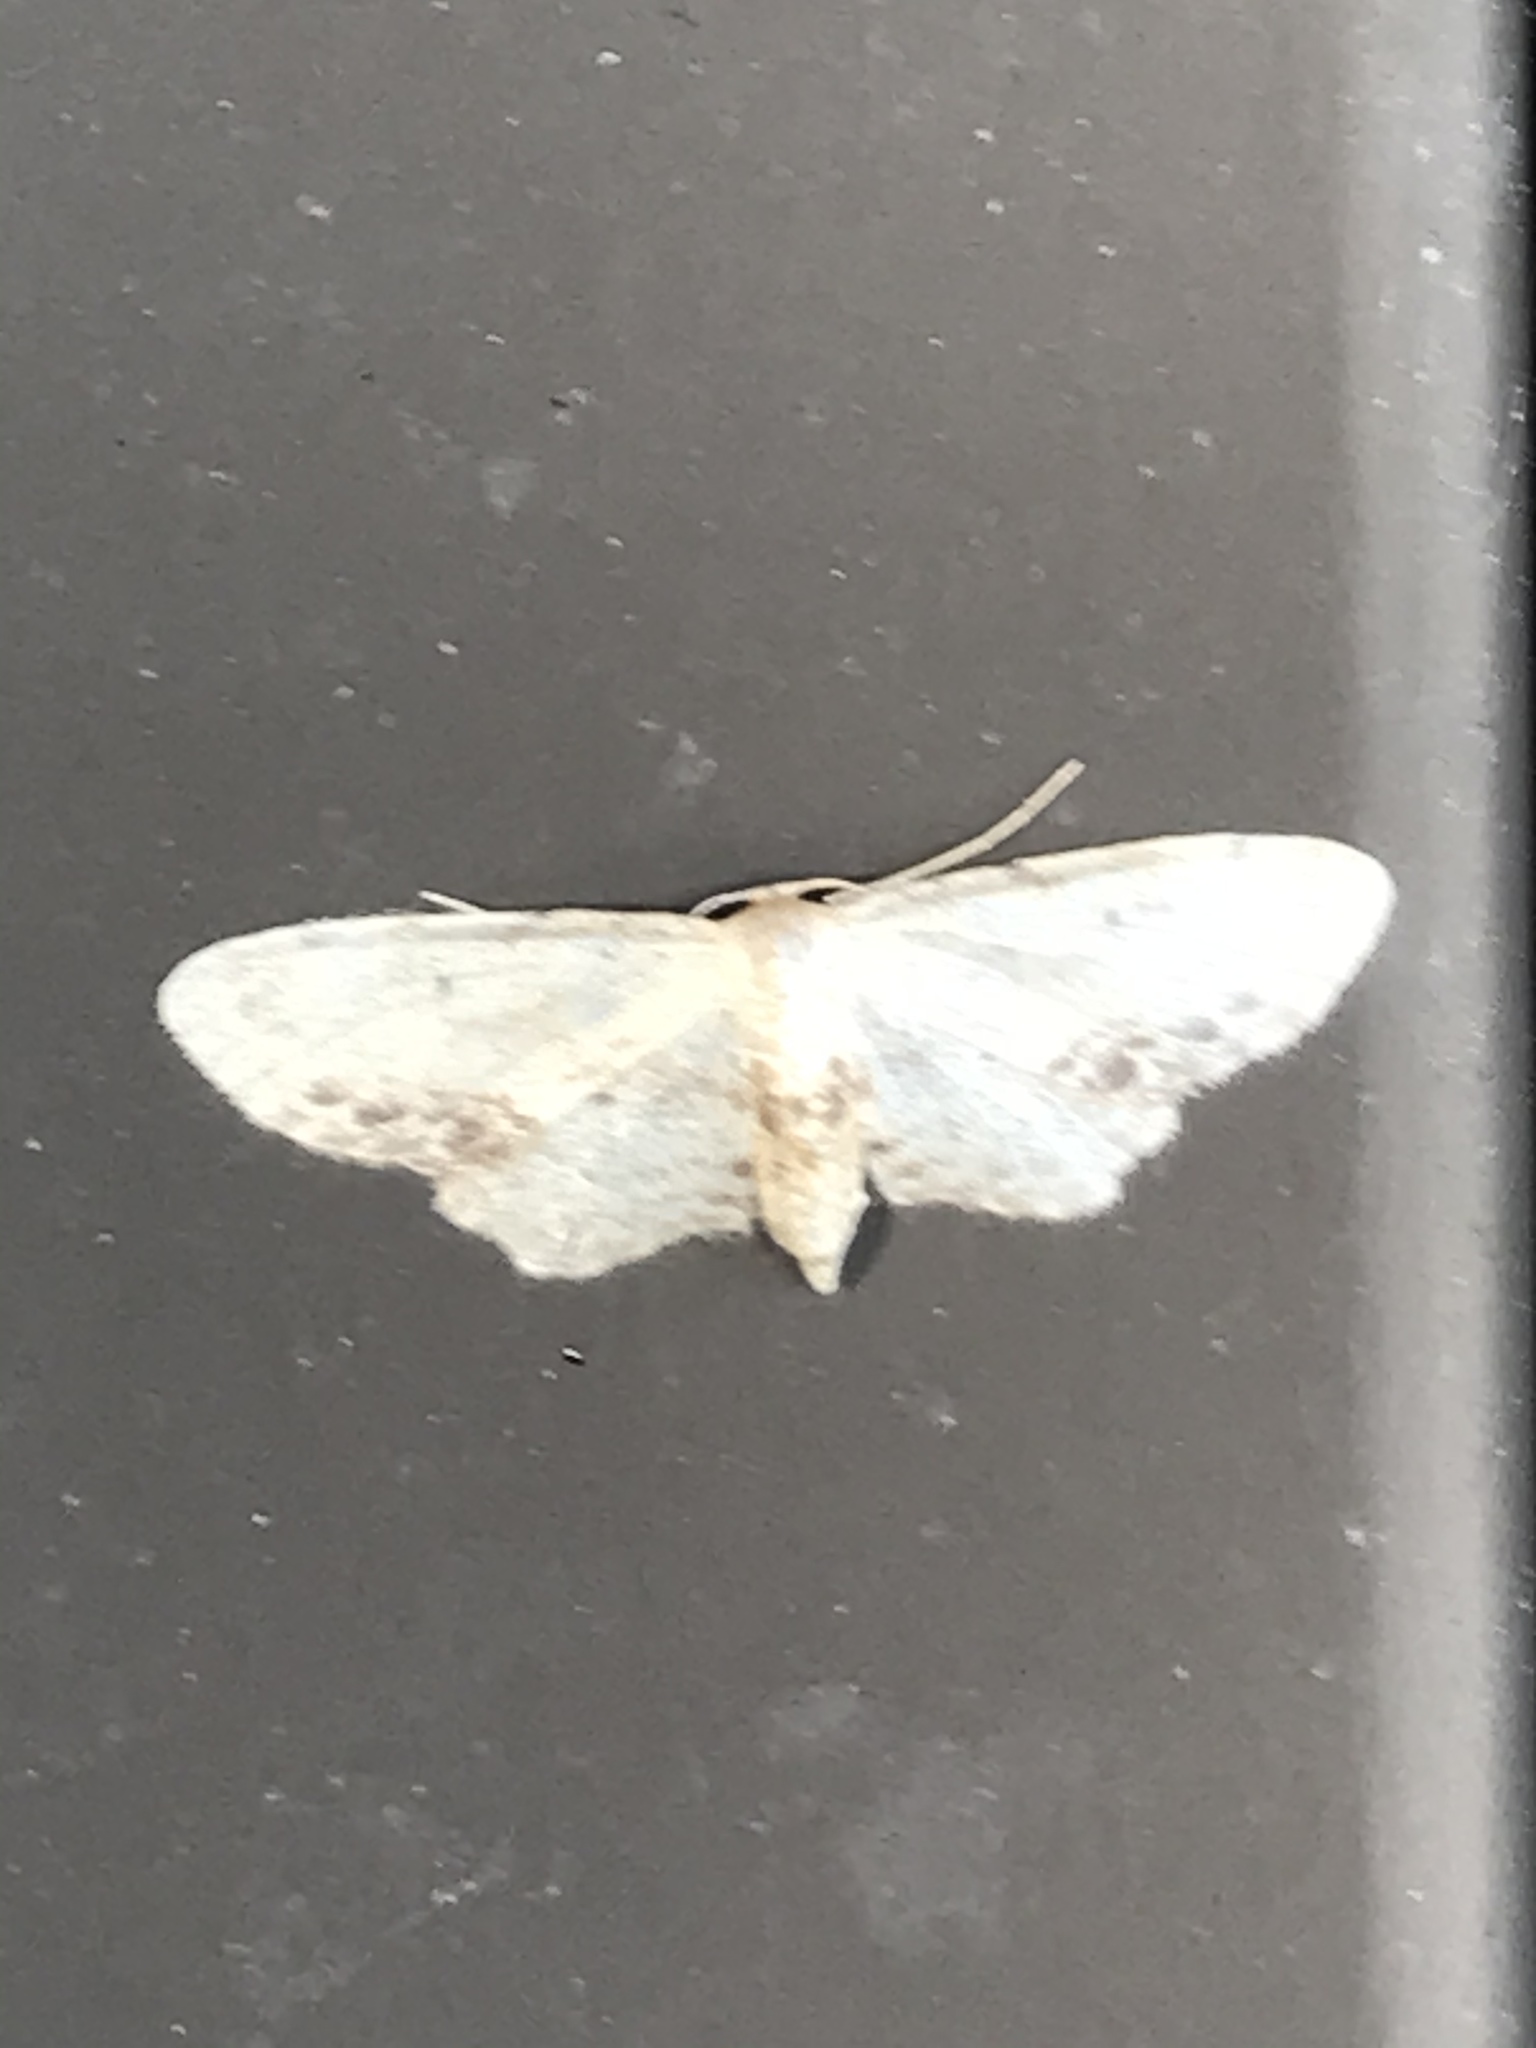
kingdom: Animalia
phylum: Arthropoda
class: Insecta
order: Lepidoptera
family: Geometridae
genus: Idaea
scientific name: Idaea dimidiata
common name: Single-dotted wave
